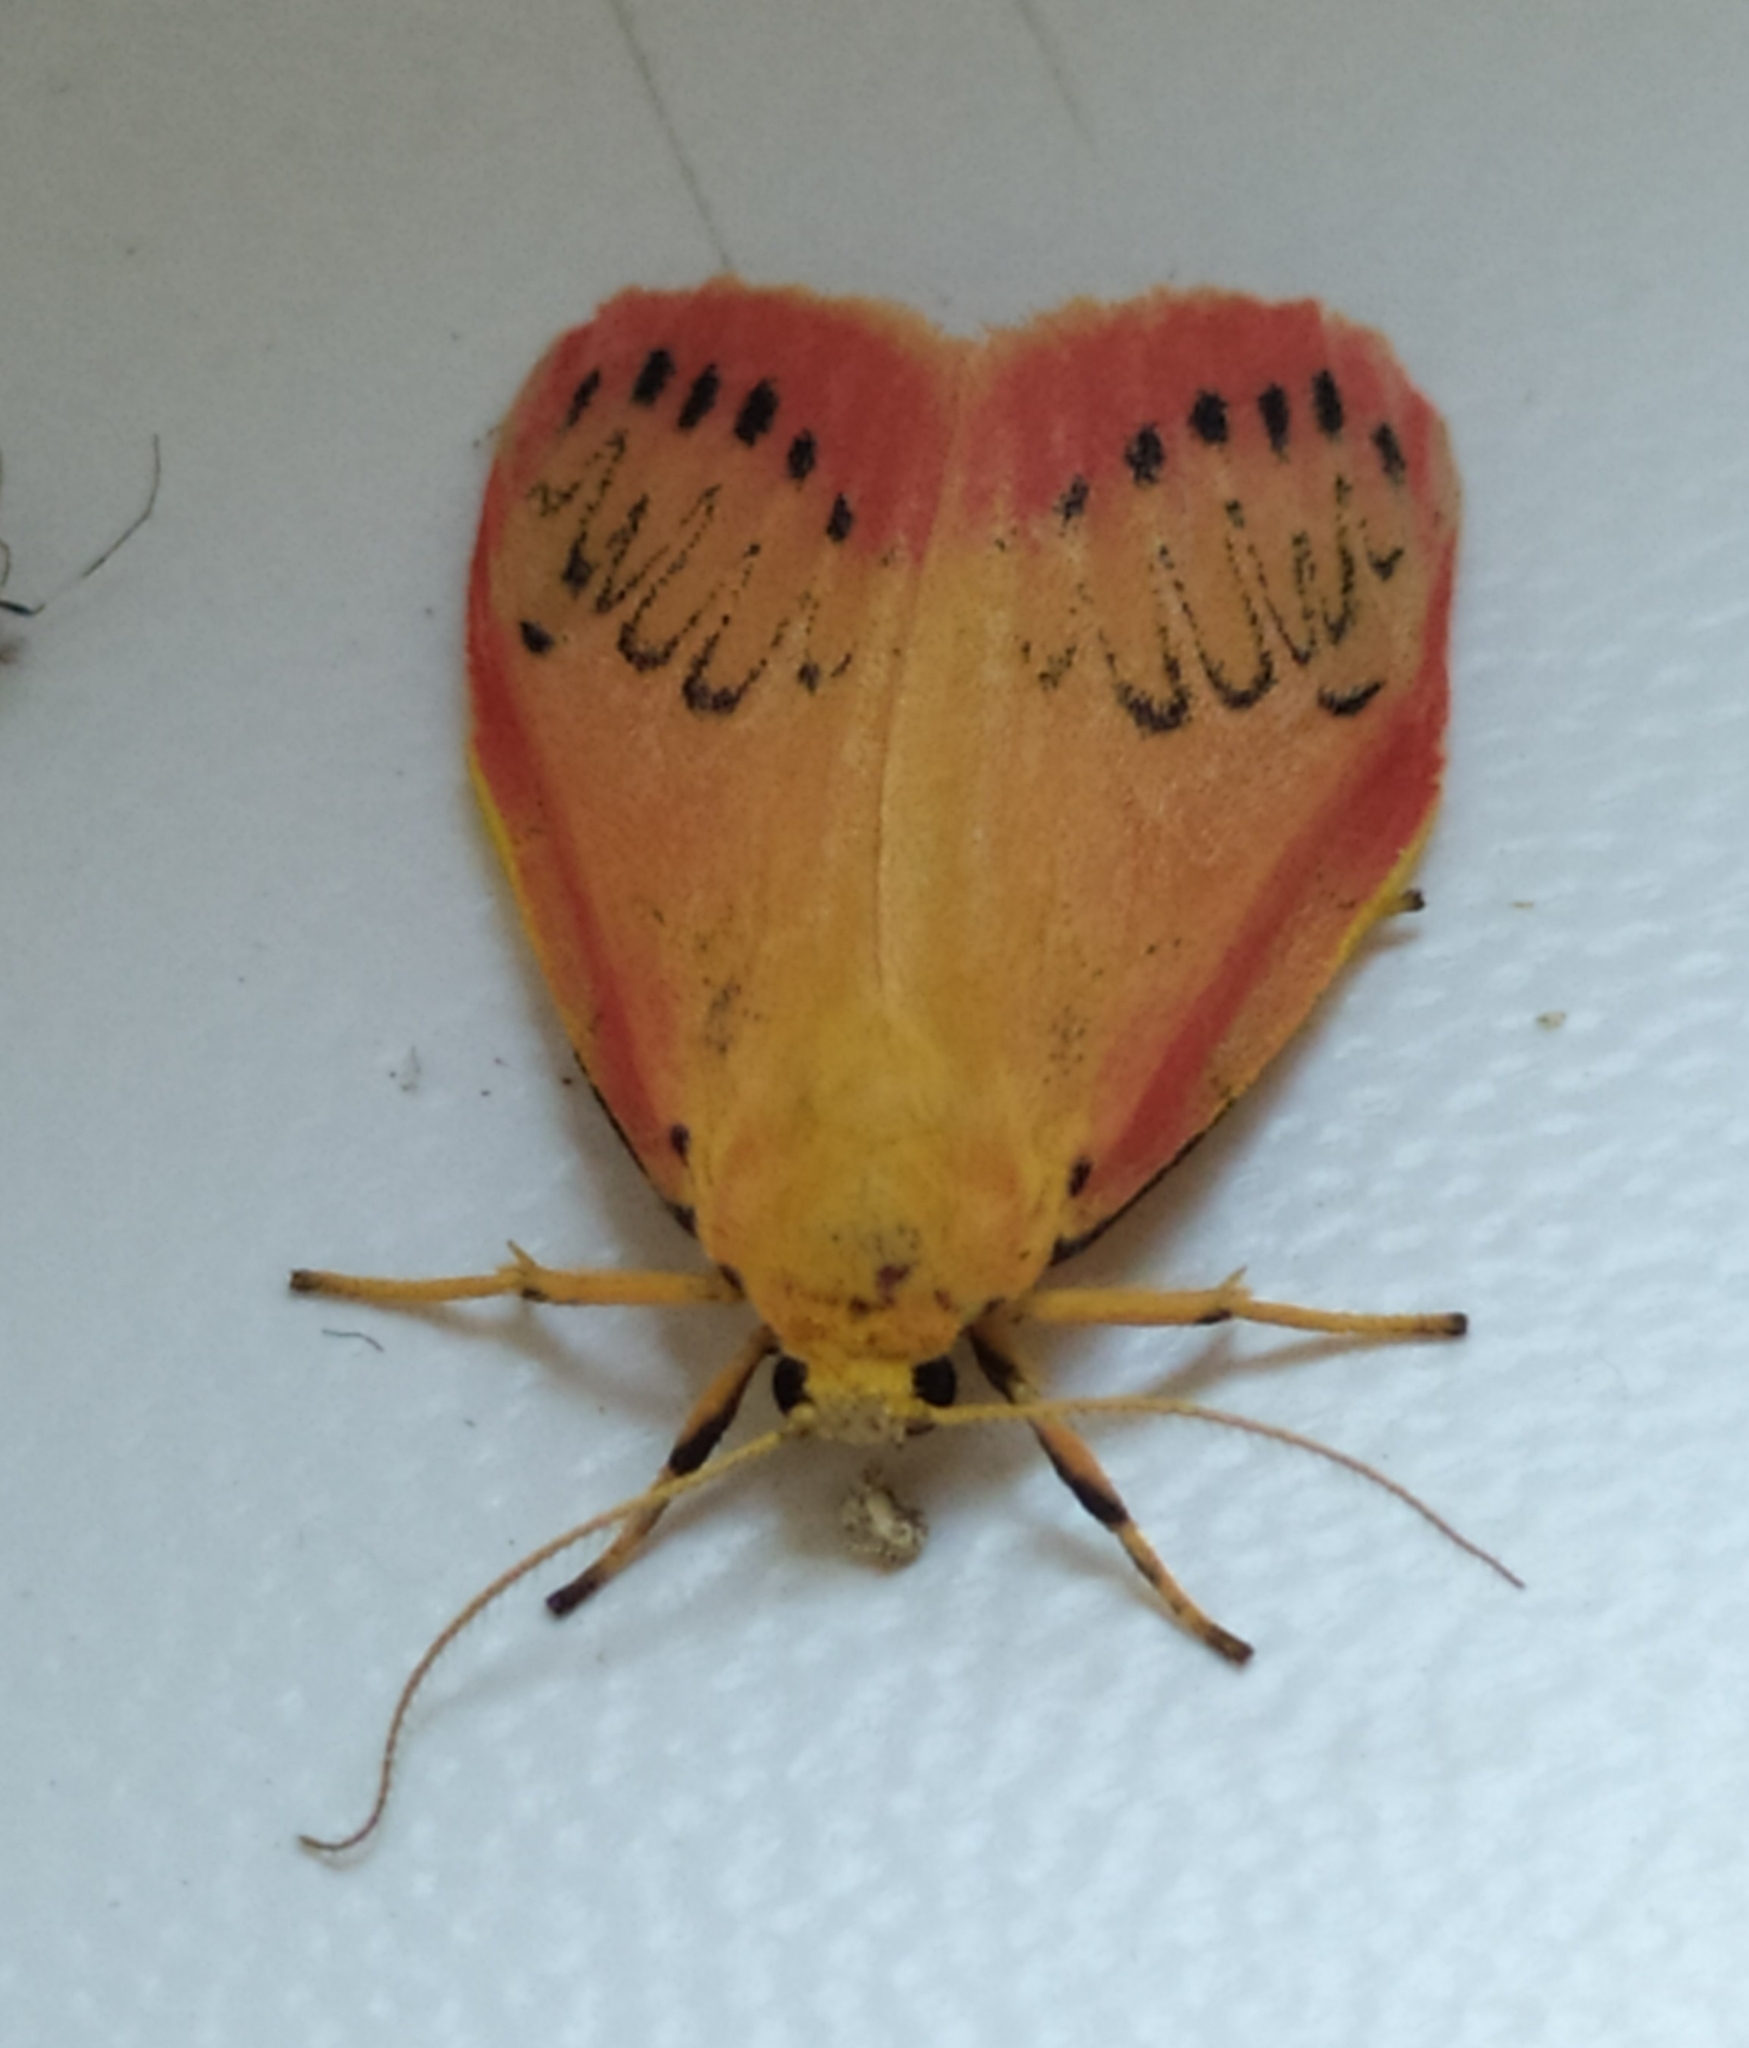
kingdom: Animalia
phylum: Arthropoda
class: Insecta
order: Lepidoptera
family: Erebidae
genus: Miltochrista
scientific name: Miltochrista miniata
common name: Rosy footman
